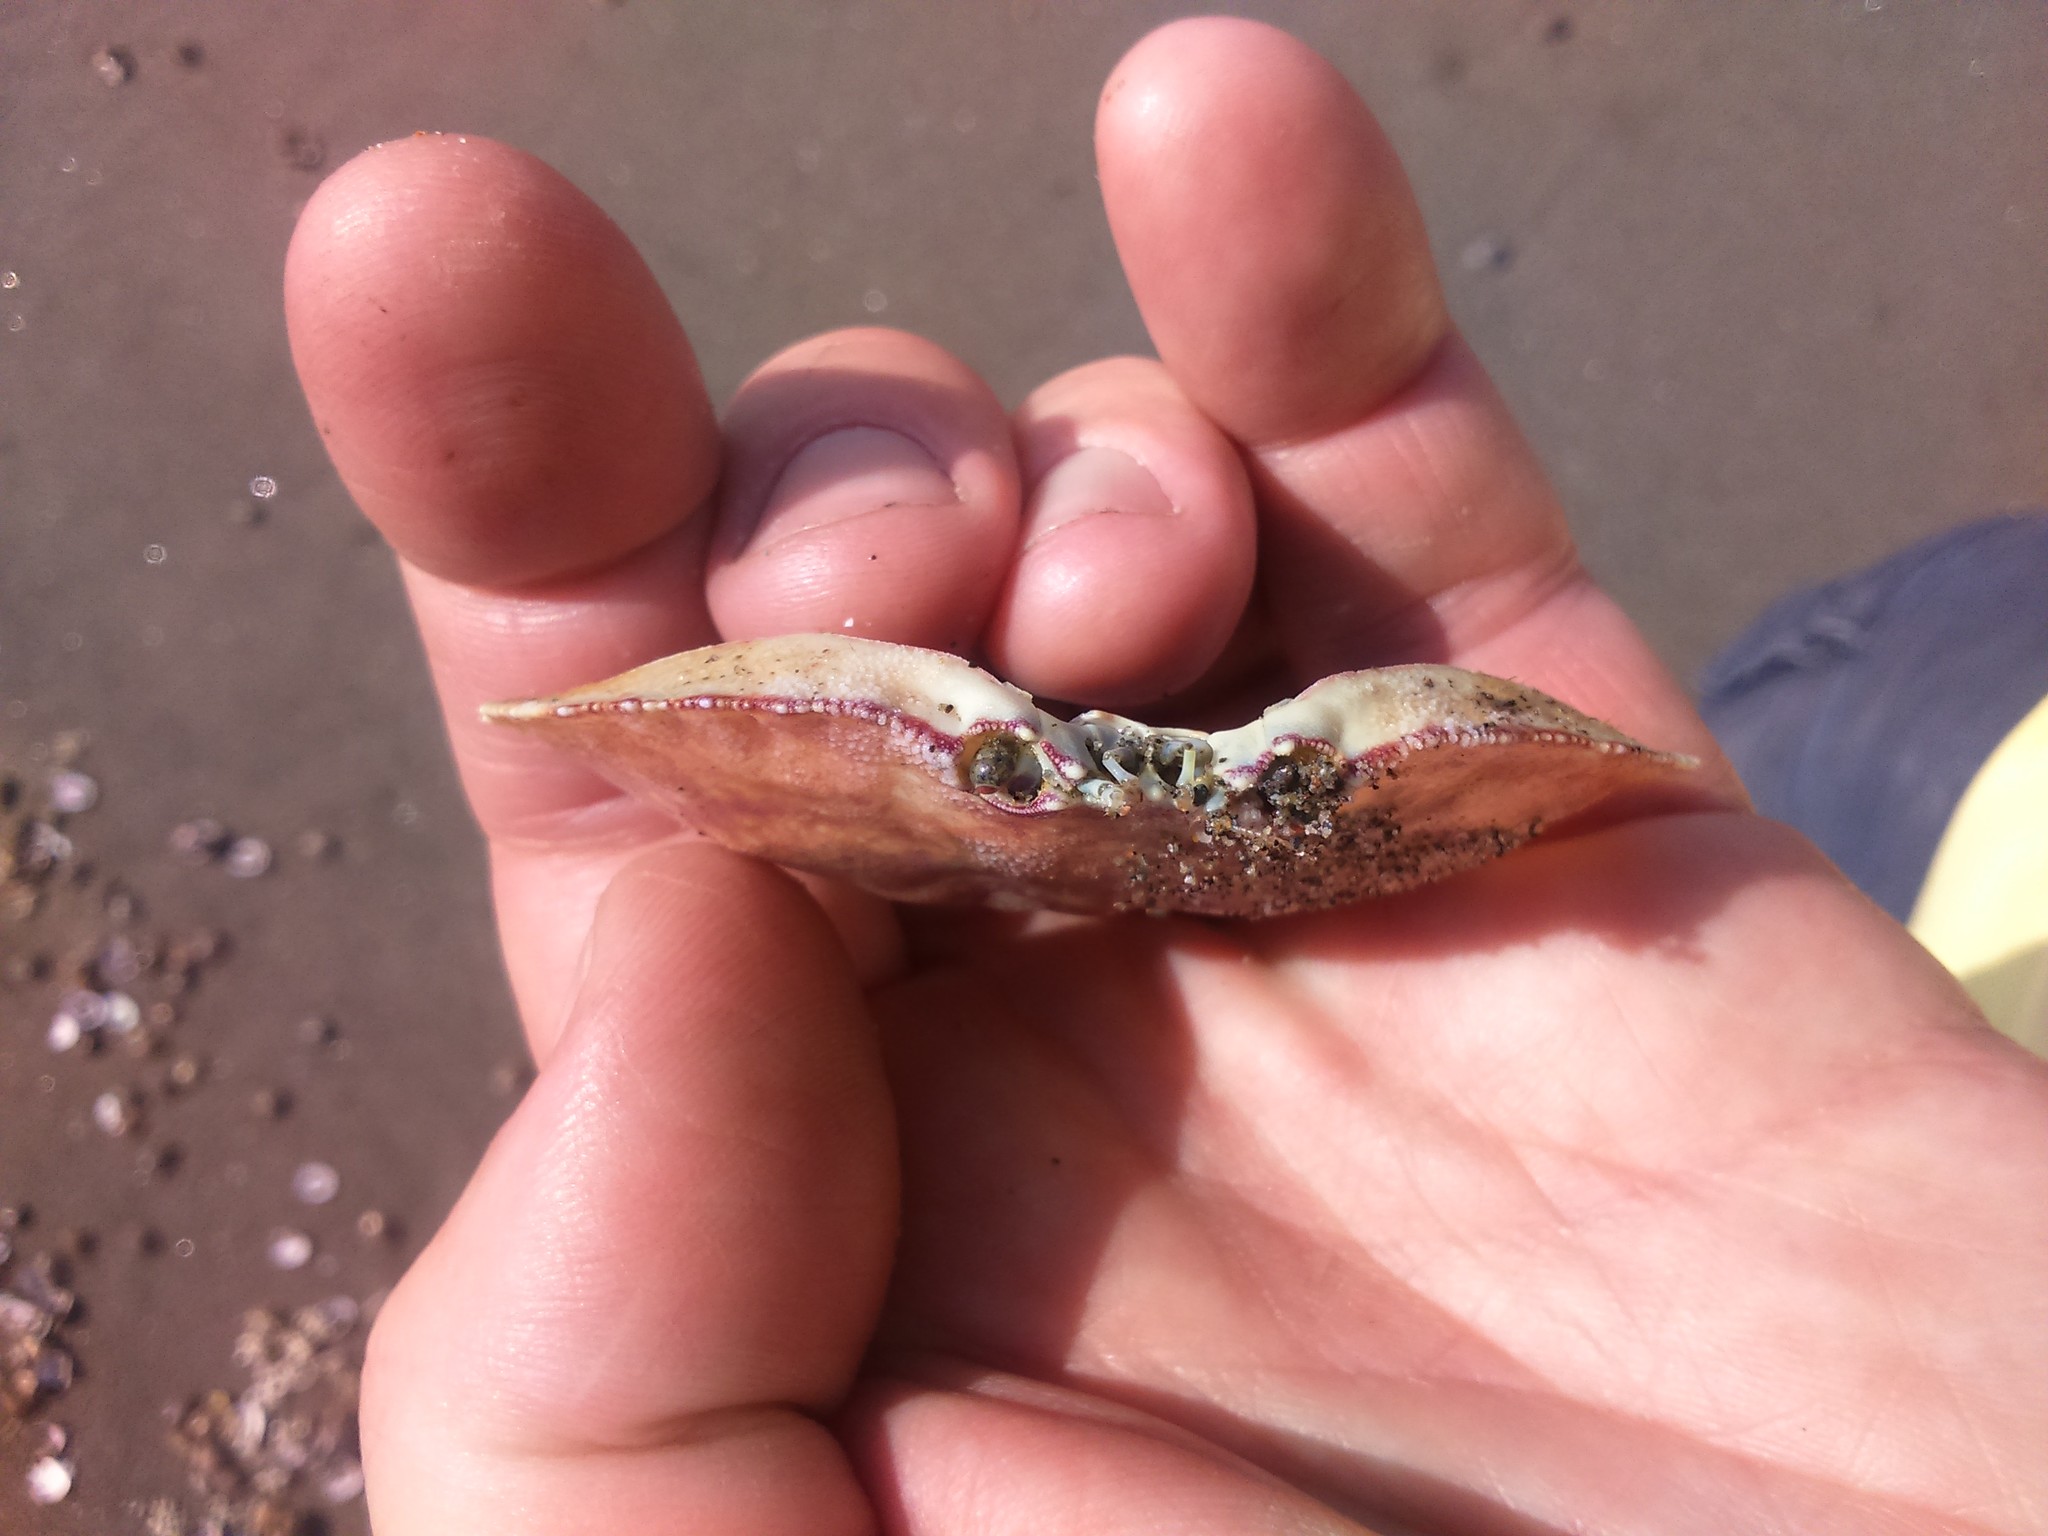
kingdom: Animalia
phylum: Arthropoda
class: Malacostraca
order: Decapoda
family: Cancridae
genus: Cancer
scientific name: Cancer plebejus
